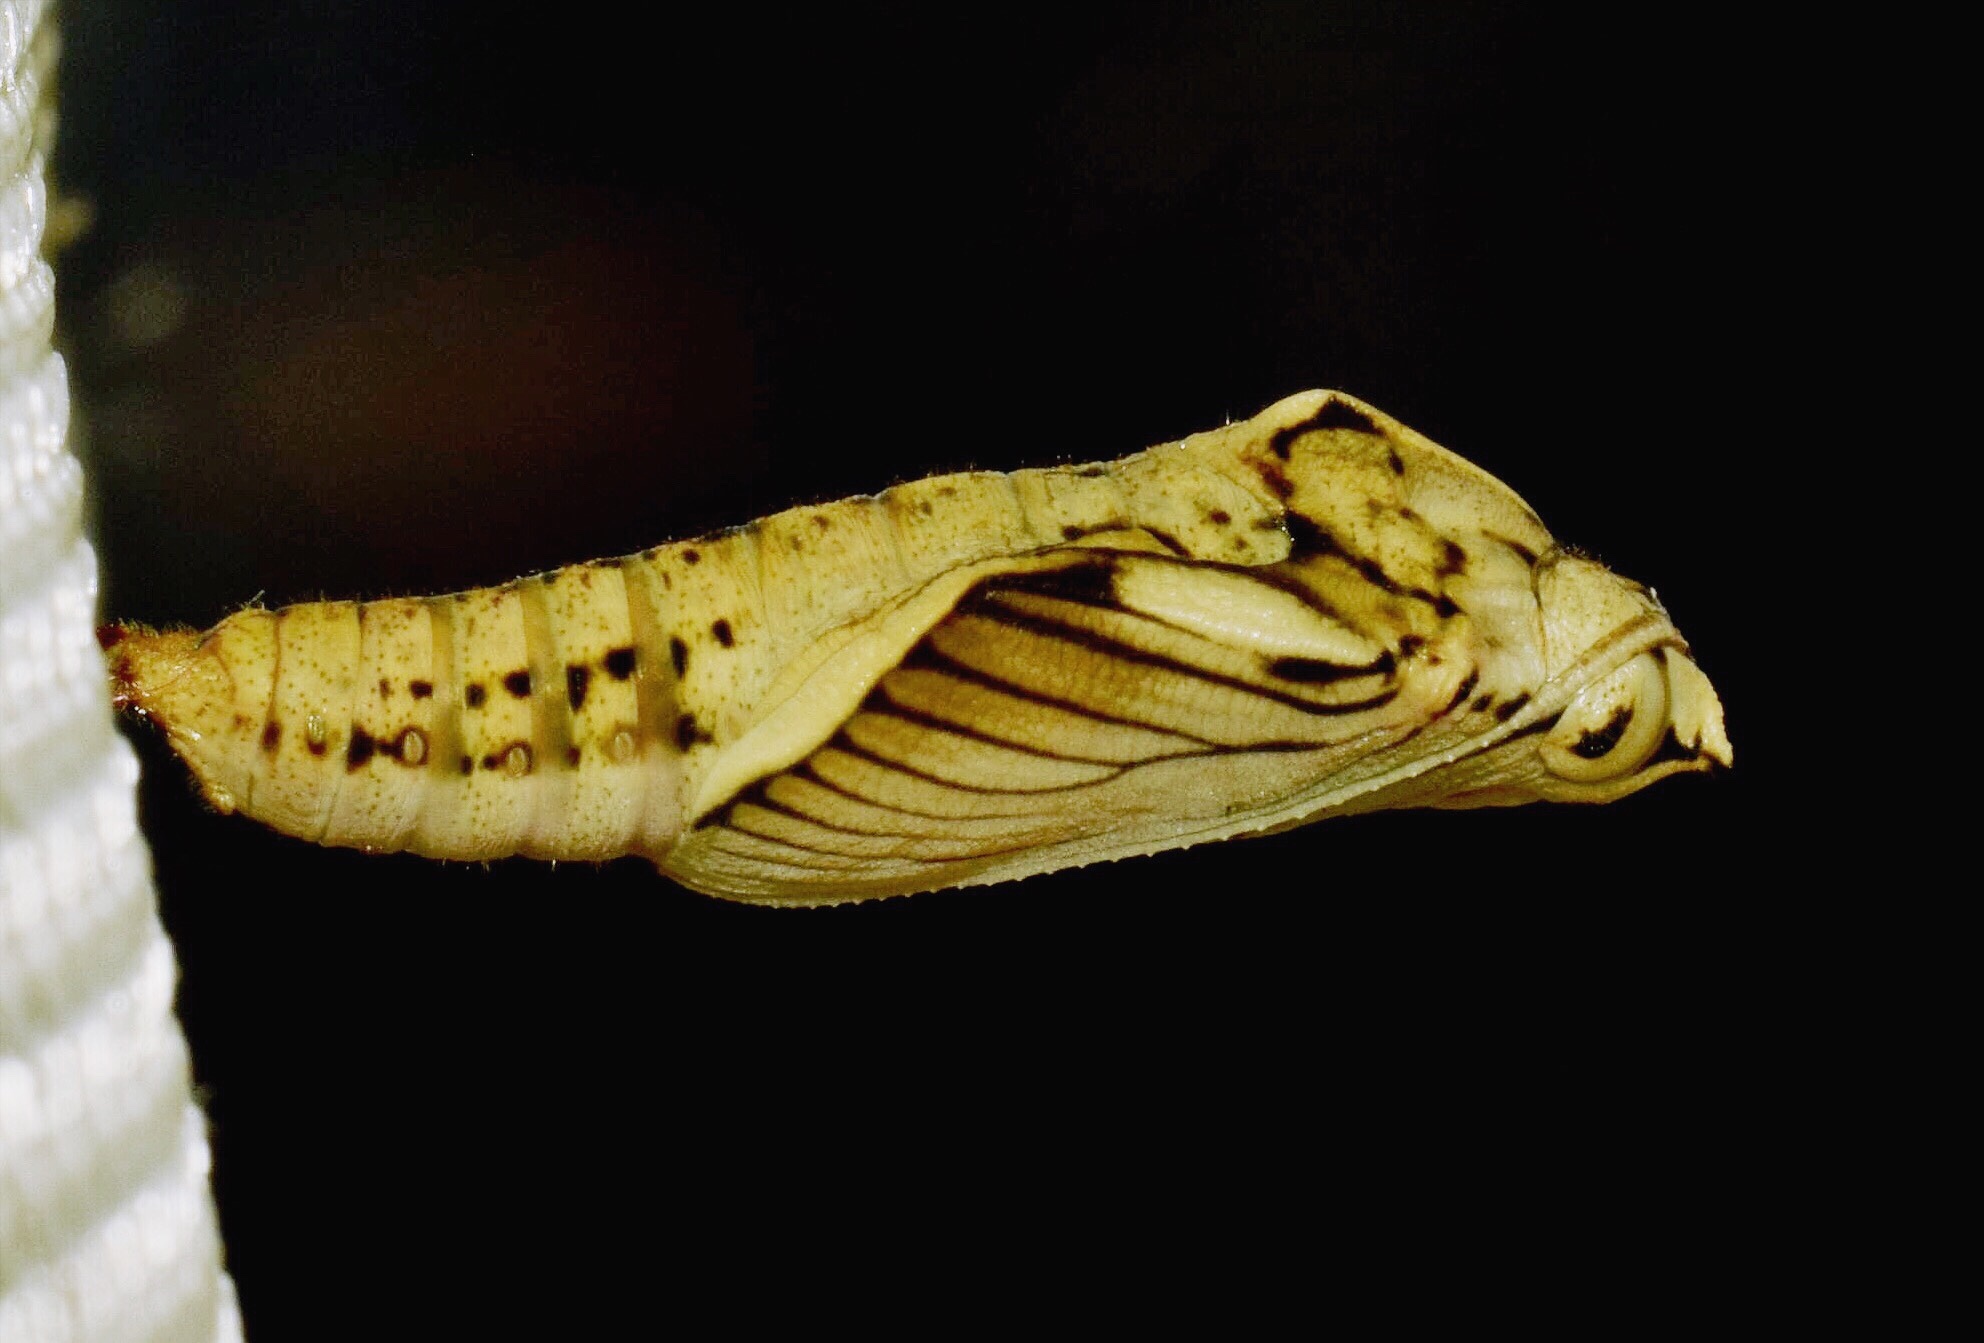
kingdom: Animalia
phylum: Arthropoda
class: Insecta
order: Lepidoptera
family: Nymphalidae
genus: Asterope
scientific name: Asterope boisduvali
